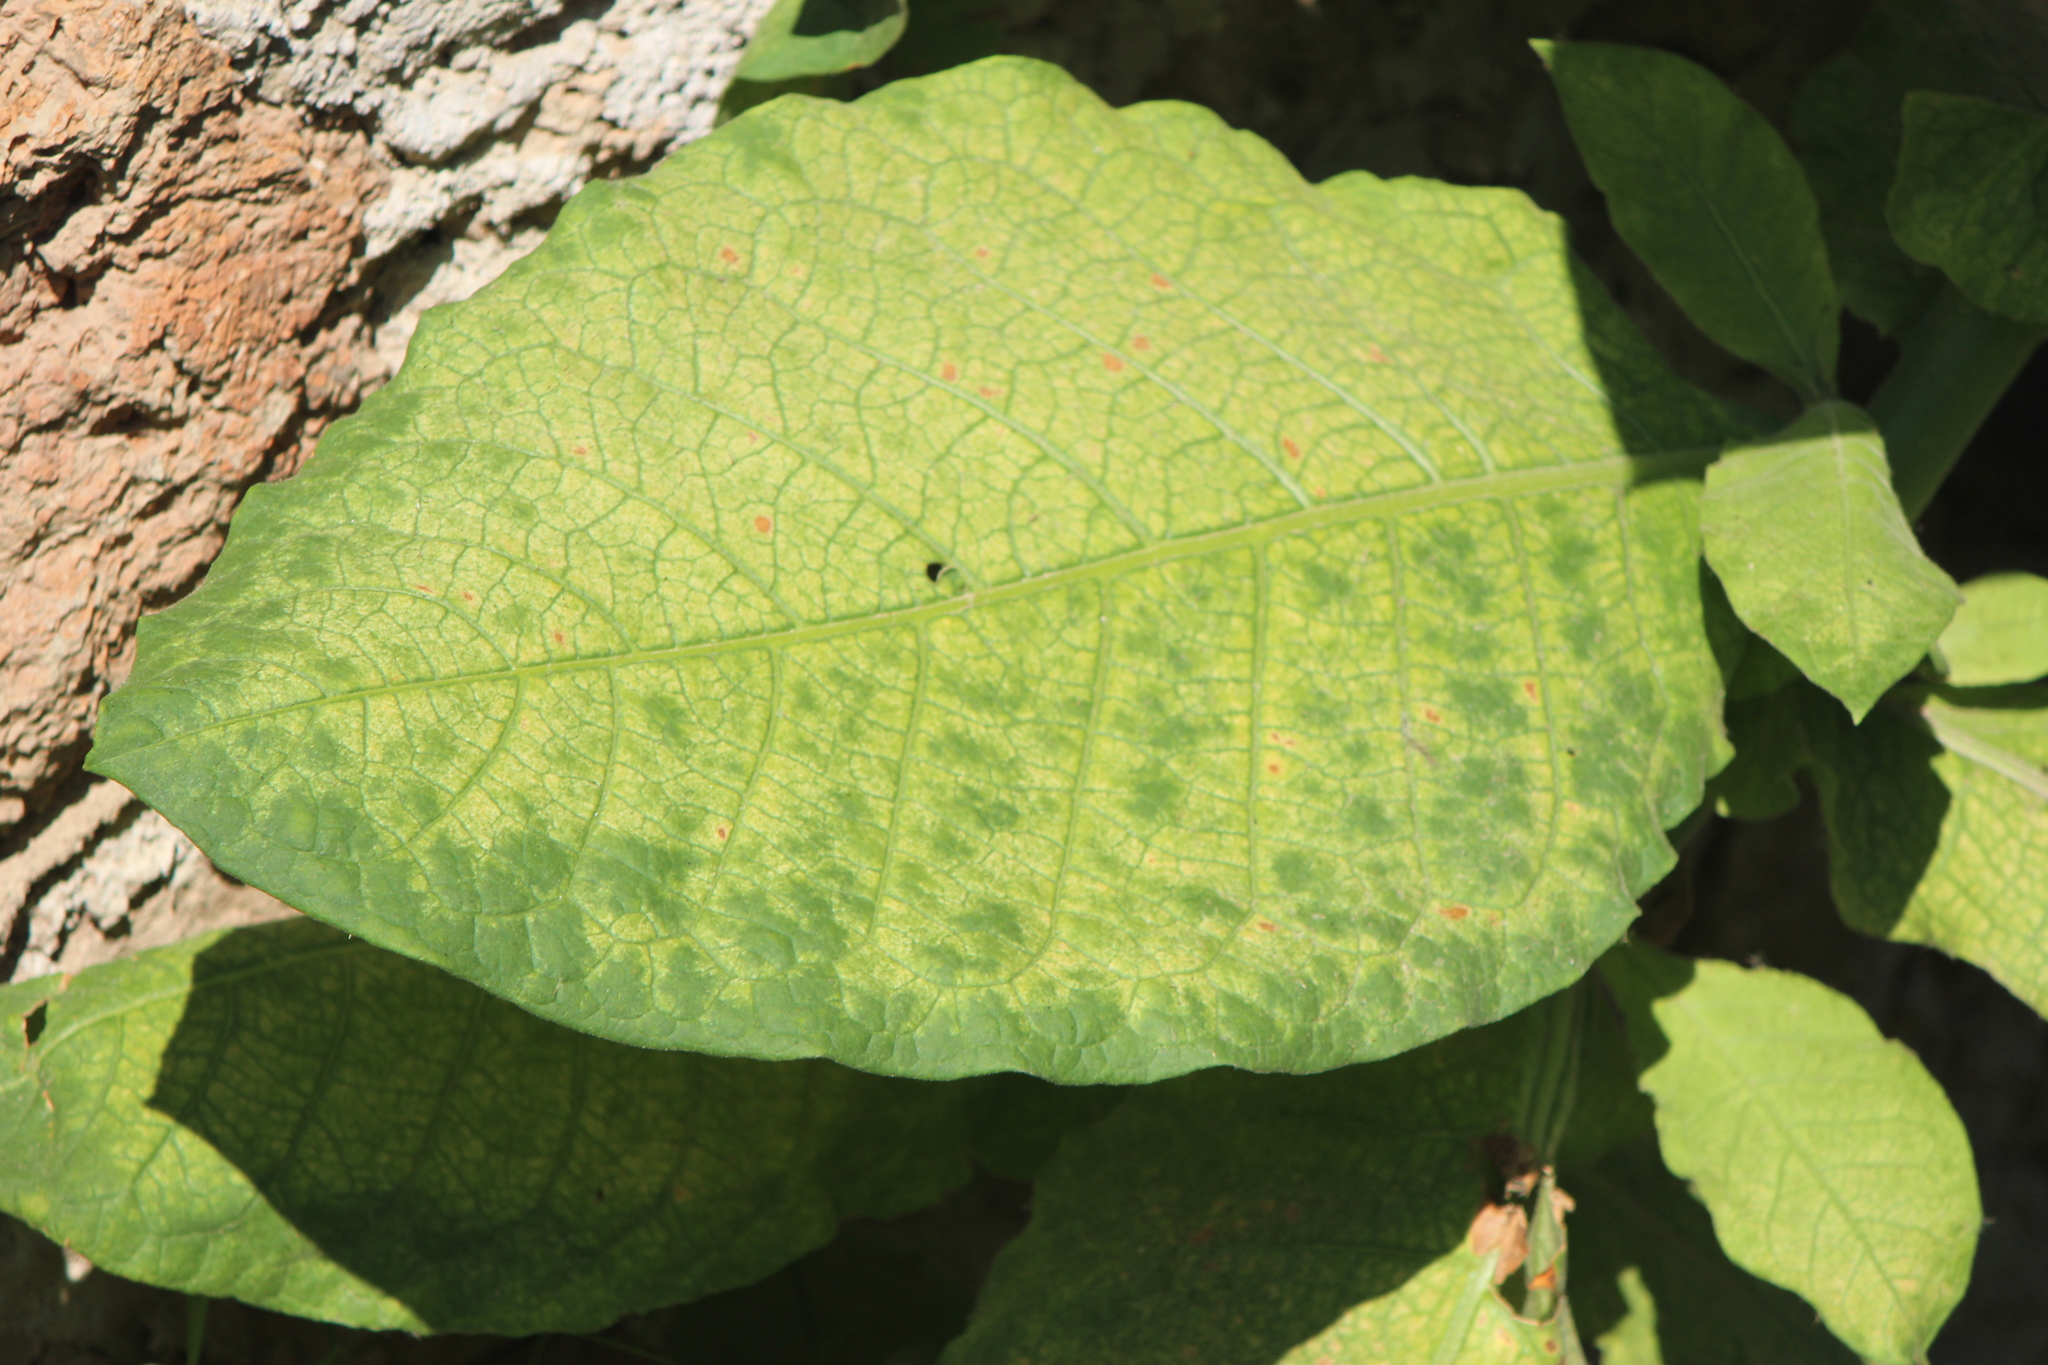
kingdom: Plantae
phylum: Tracheophyta
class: Magnoliopsida
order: Solanales
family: Solanaceae
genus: Nicotiana
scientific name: Nicotiana tabacum
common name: Tobacco
